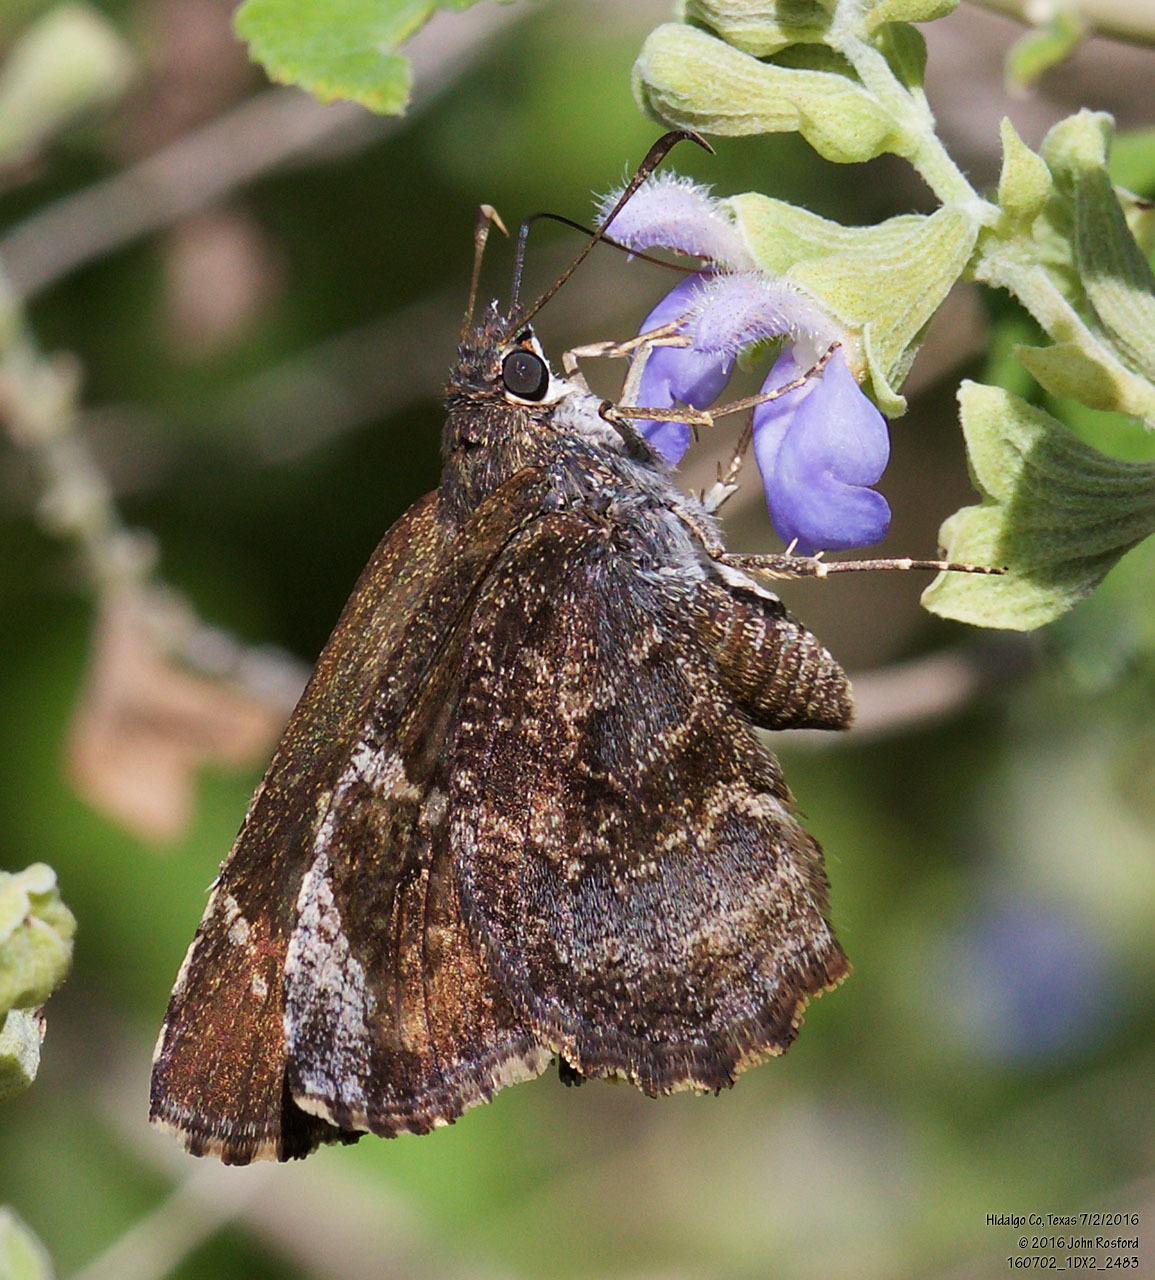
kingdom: Animalia
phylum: Arthropoda
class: Insecta
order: Lepidoptera
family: Hesperiidae
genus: Caicella
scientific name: Caicella calchas
